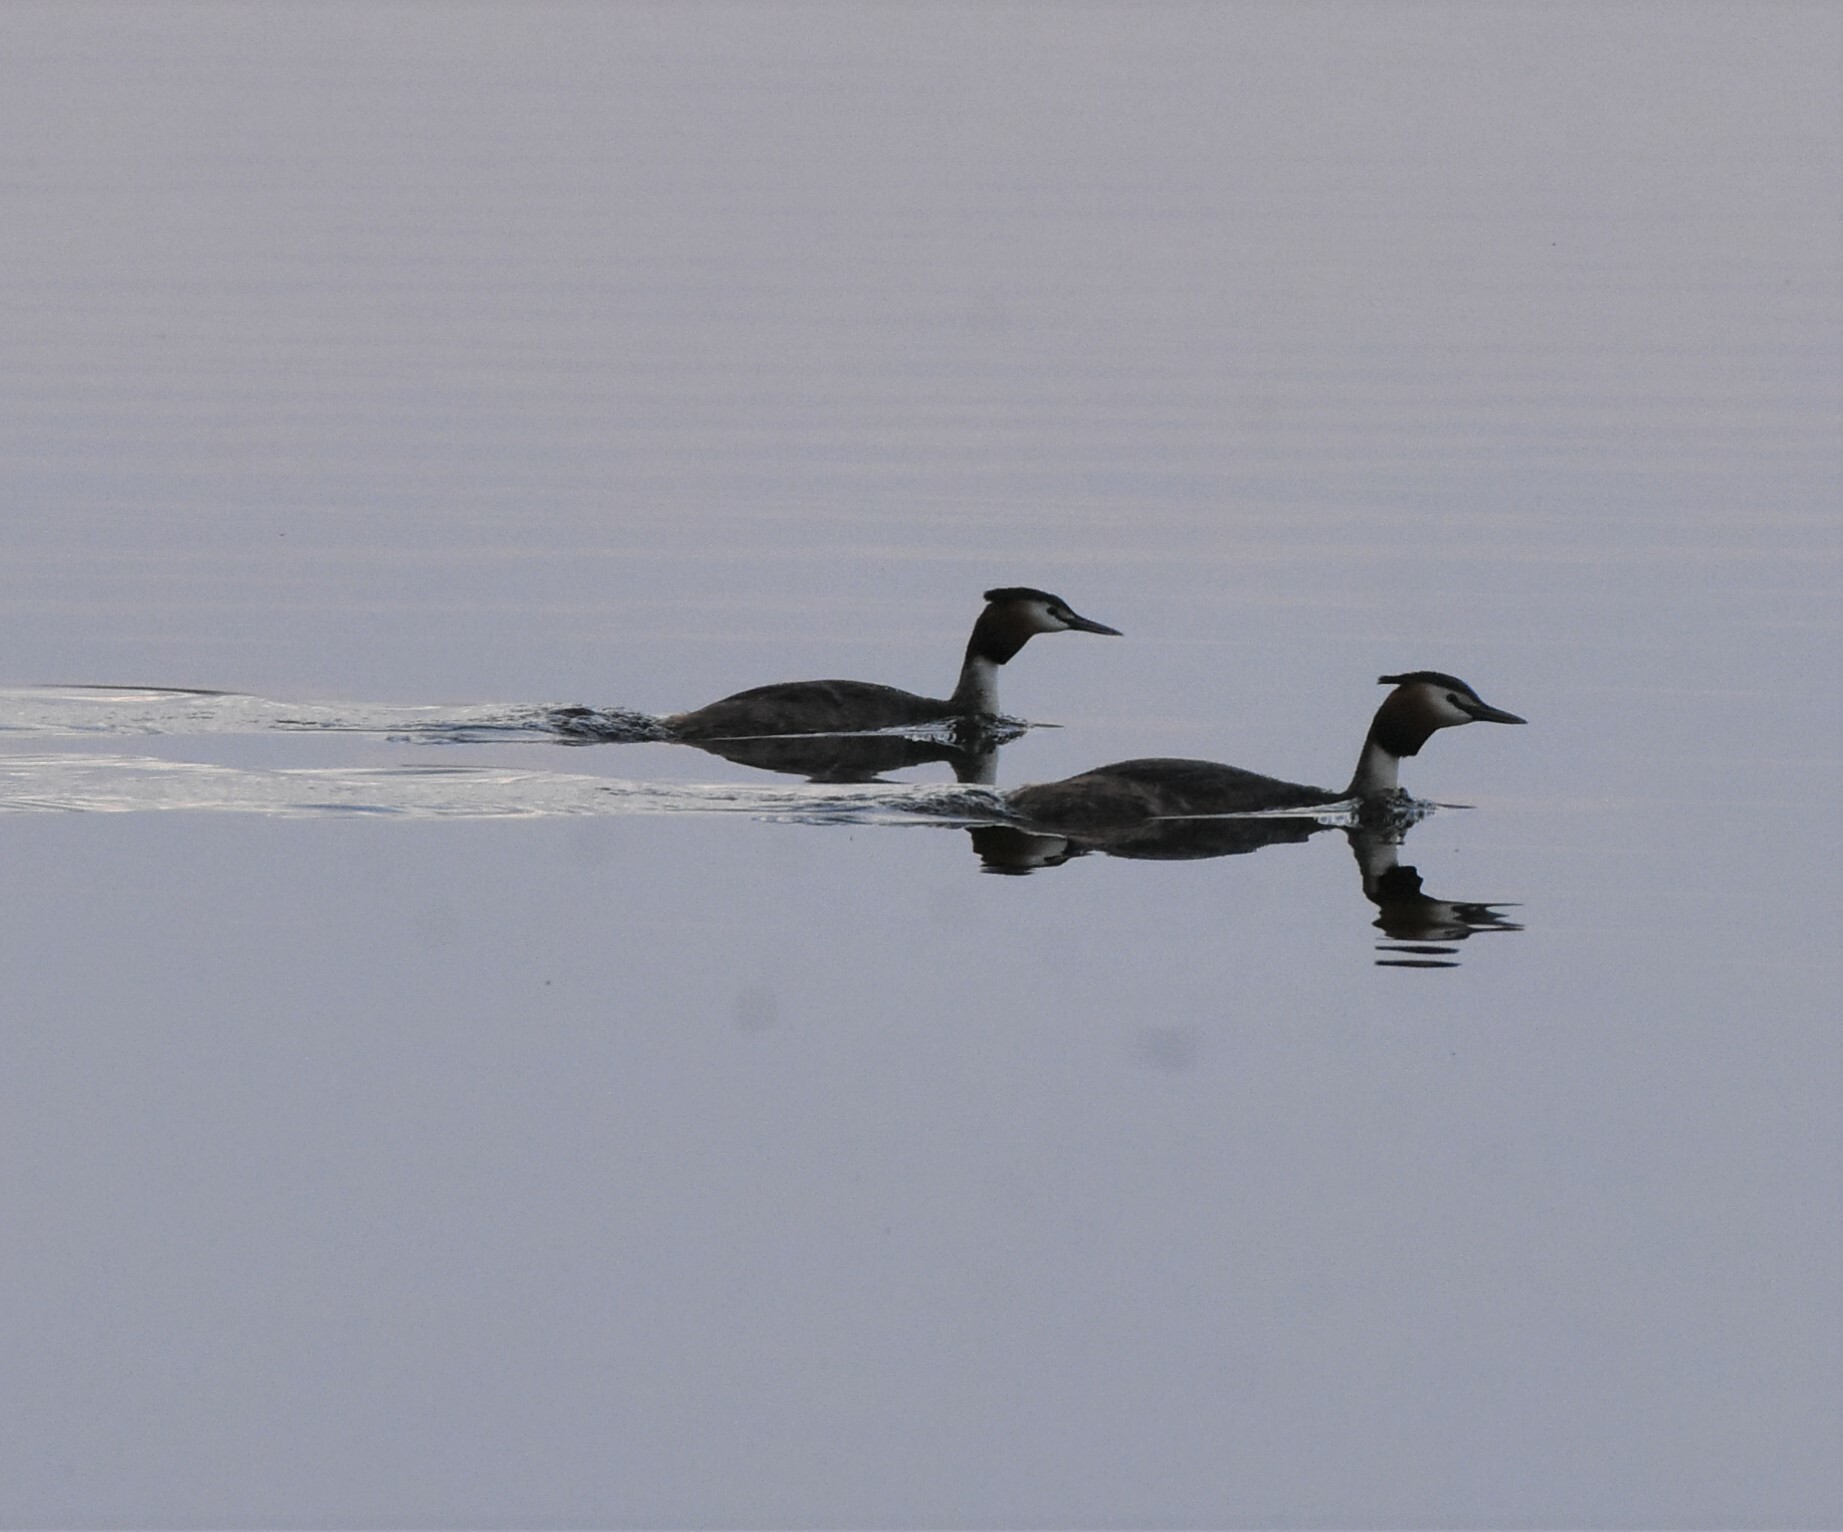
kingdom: Animalia
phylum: Chordata
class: Aves
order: Podicipediformes
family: Podicipedidae
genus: Podiceps
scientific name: Podiceps cristatus
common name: Great crested grebe
